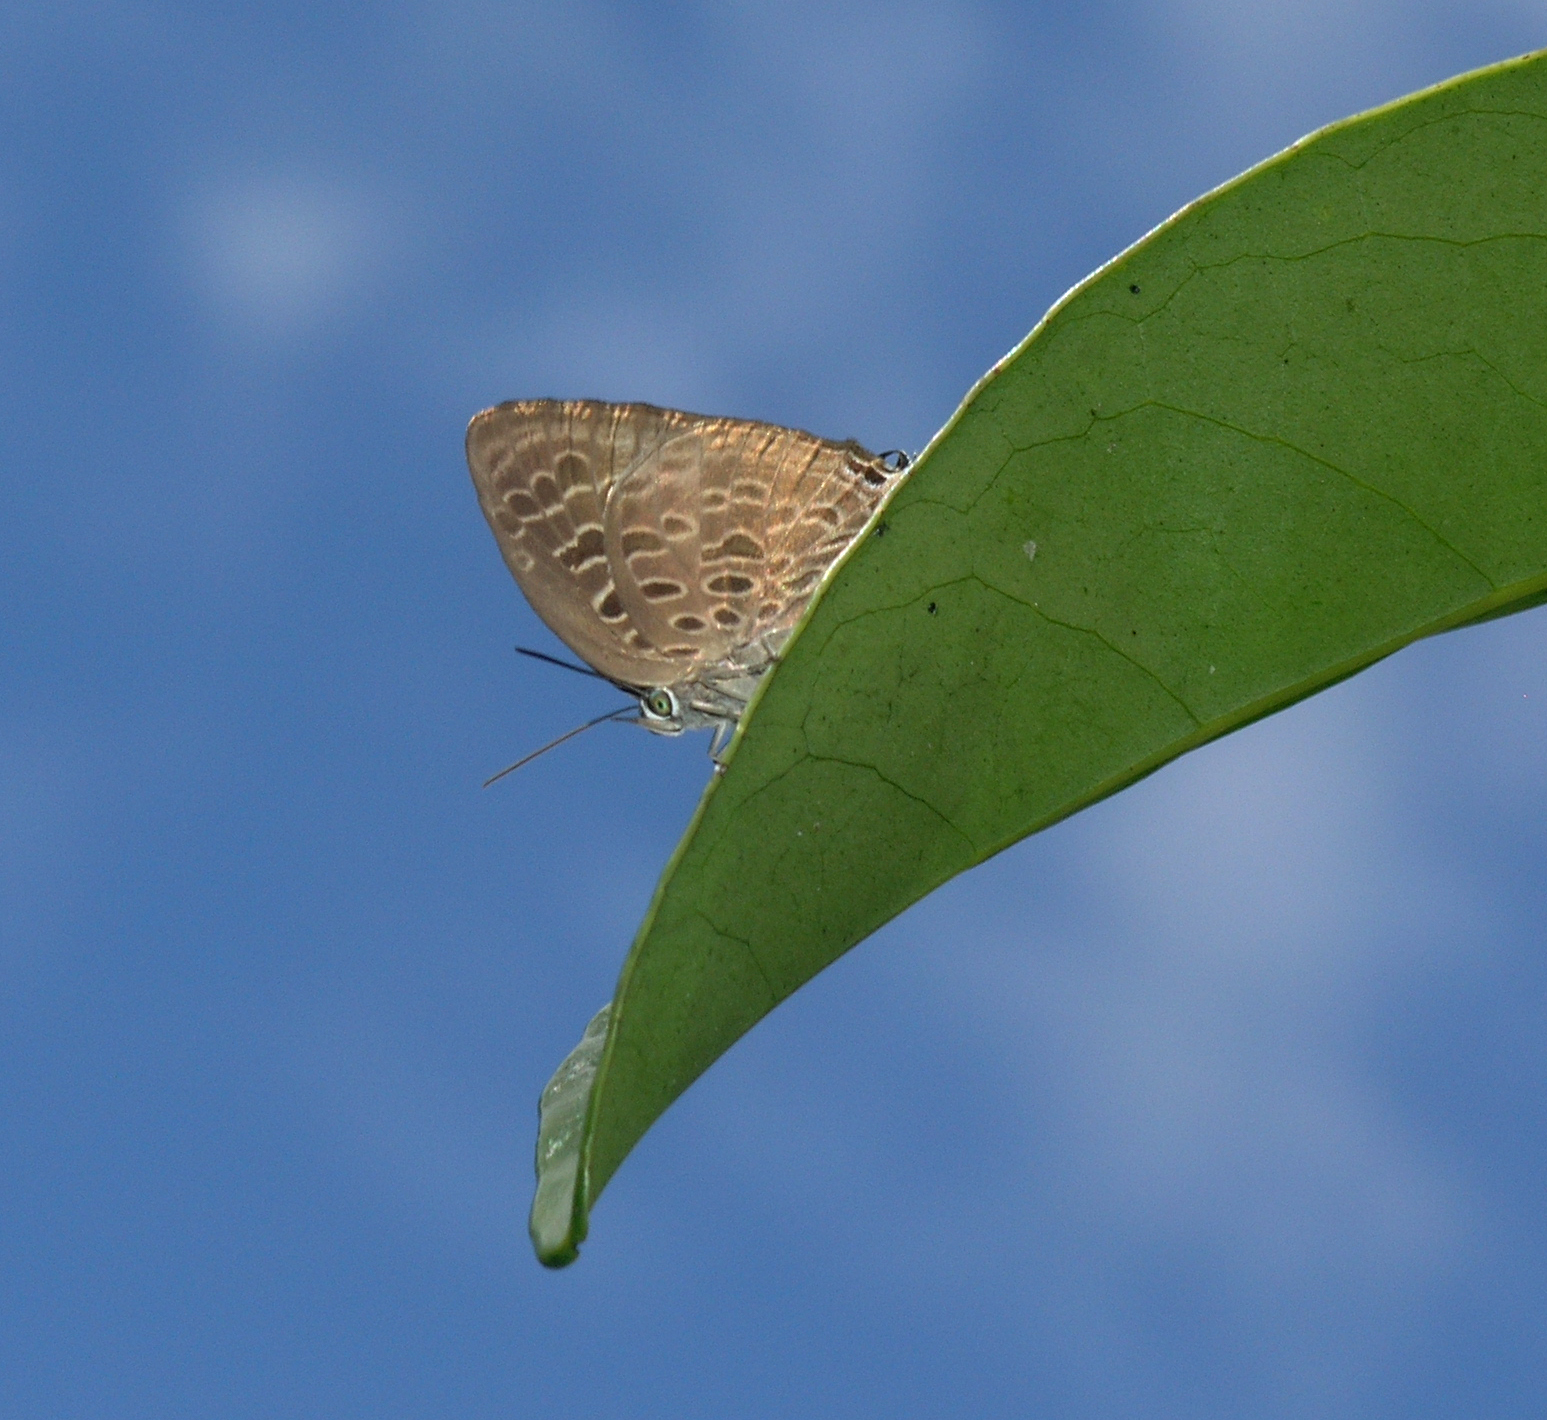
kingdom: Animalia
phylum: Arthropoda
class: Insecta
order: Lepidoptera
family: Lycaenidae
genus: Arhopala
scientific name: Arhopala camdana
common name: Moonstone oakblue
